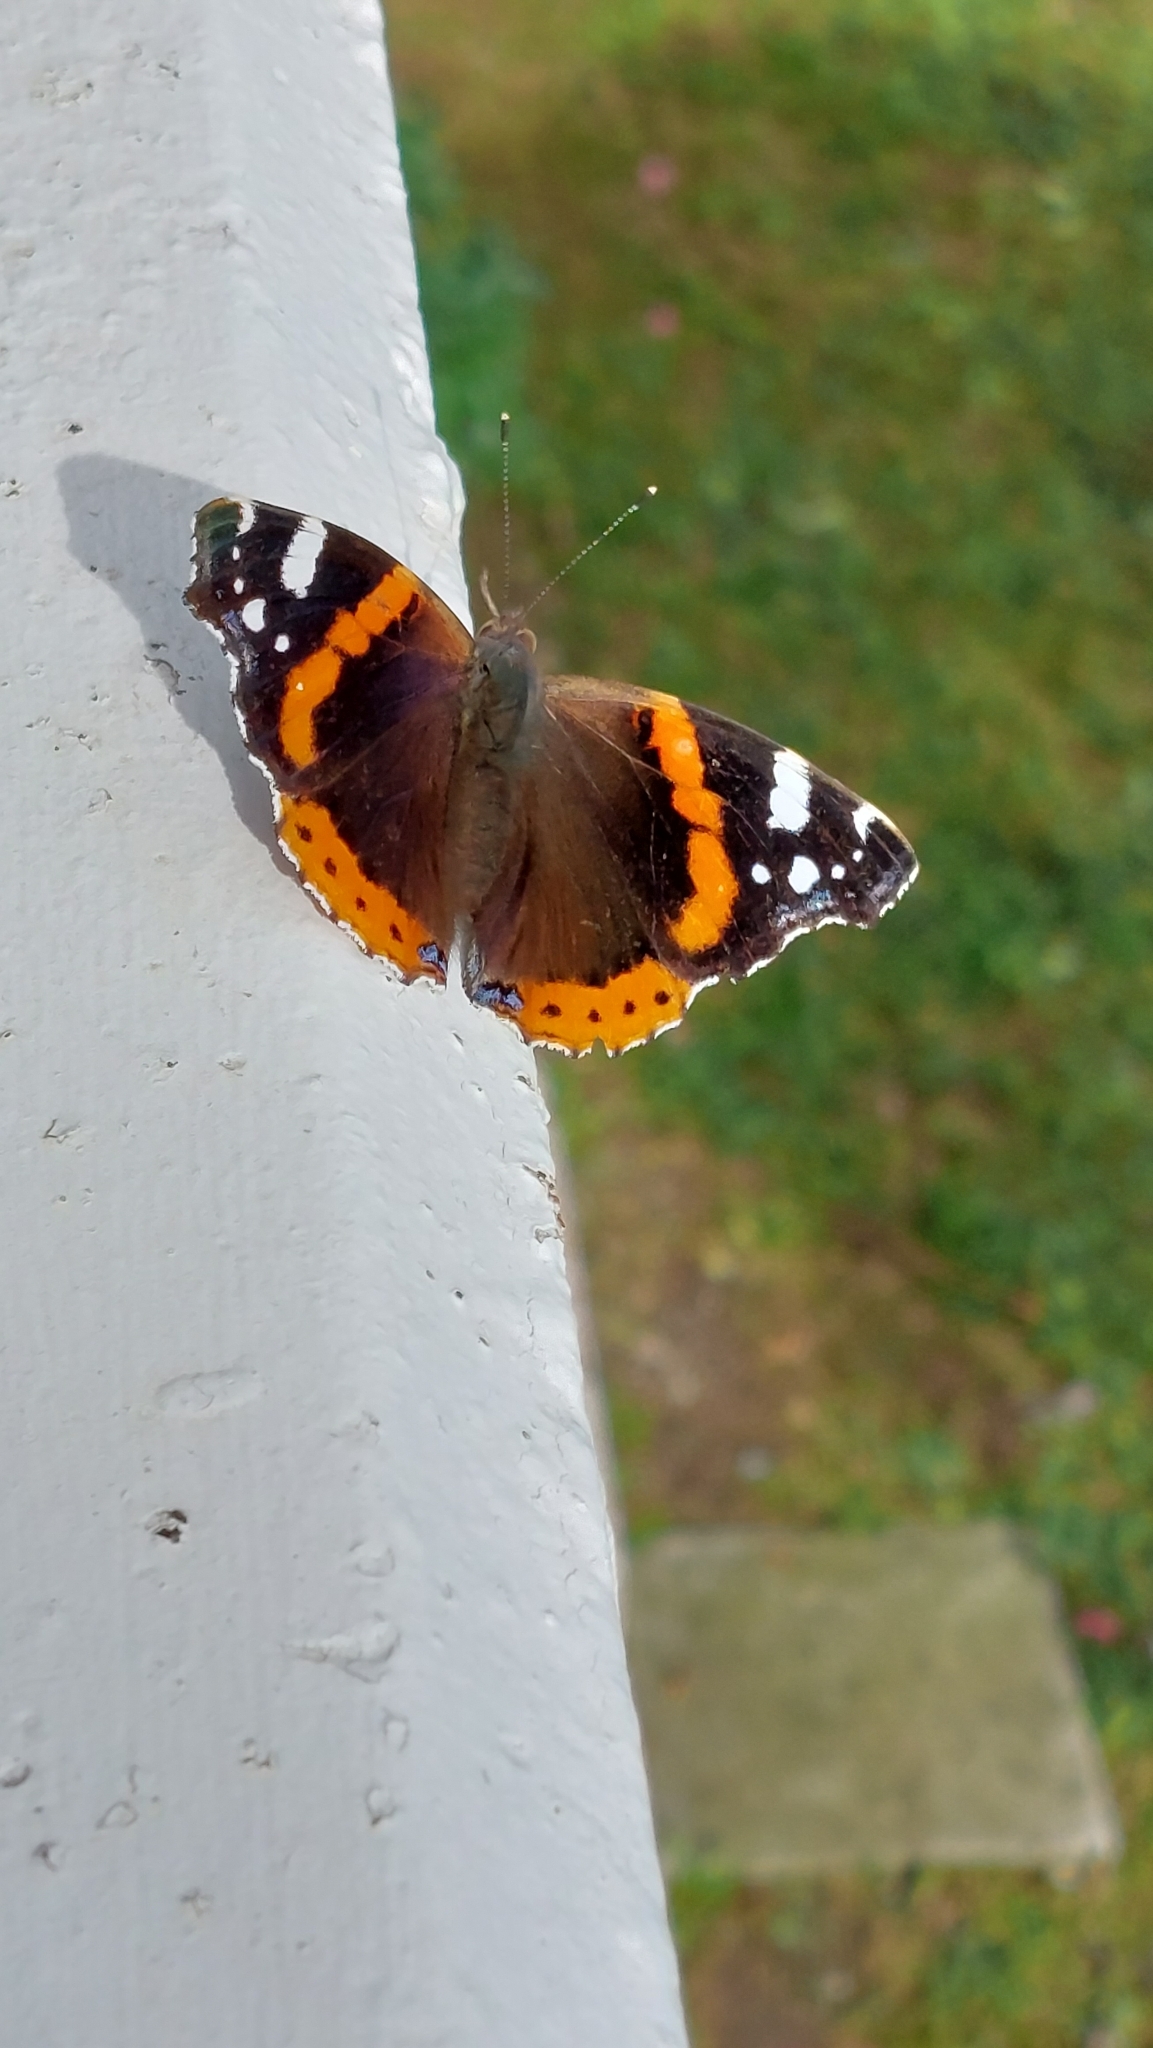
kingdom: Animalia
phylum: Arthropoda
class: Insecta
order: Lepidoptera
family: Nymphalidae
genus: Vanessa
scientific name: Vanessa atalanta
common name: Red admiral
